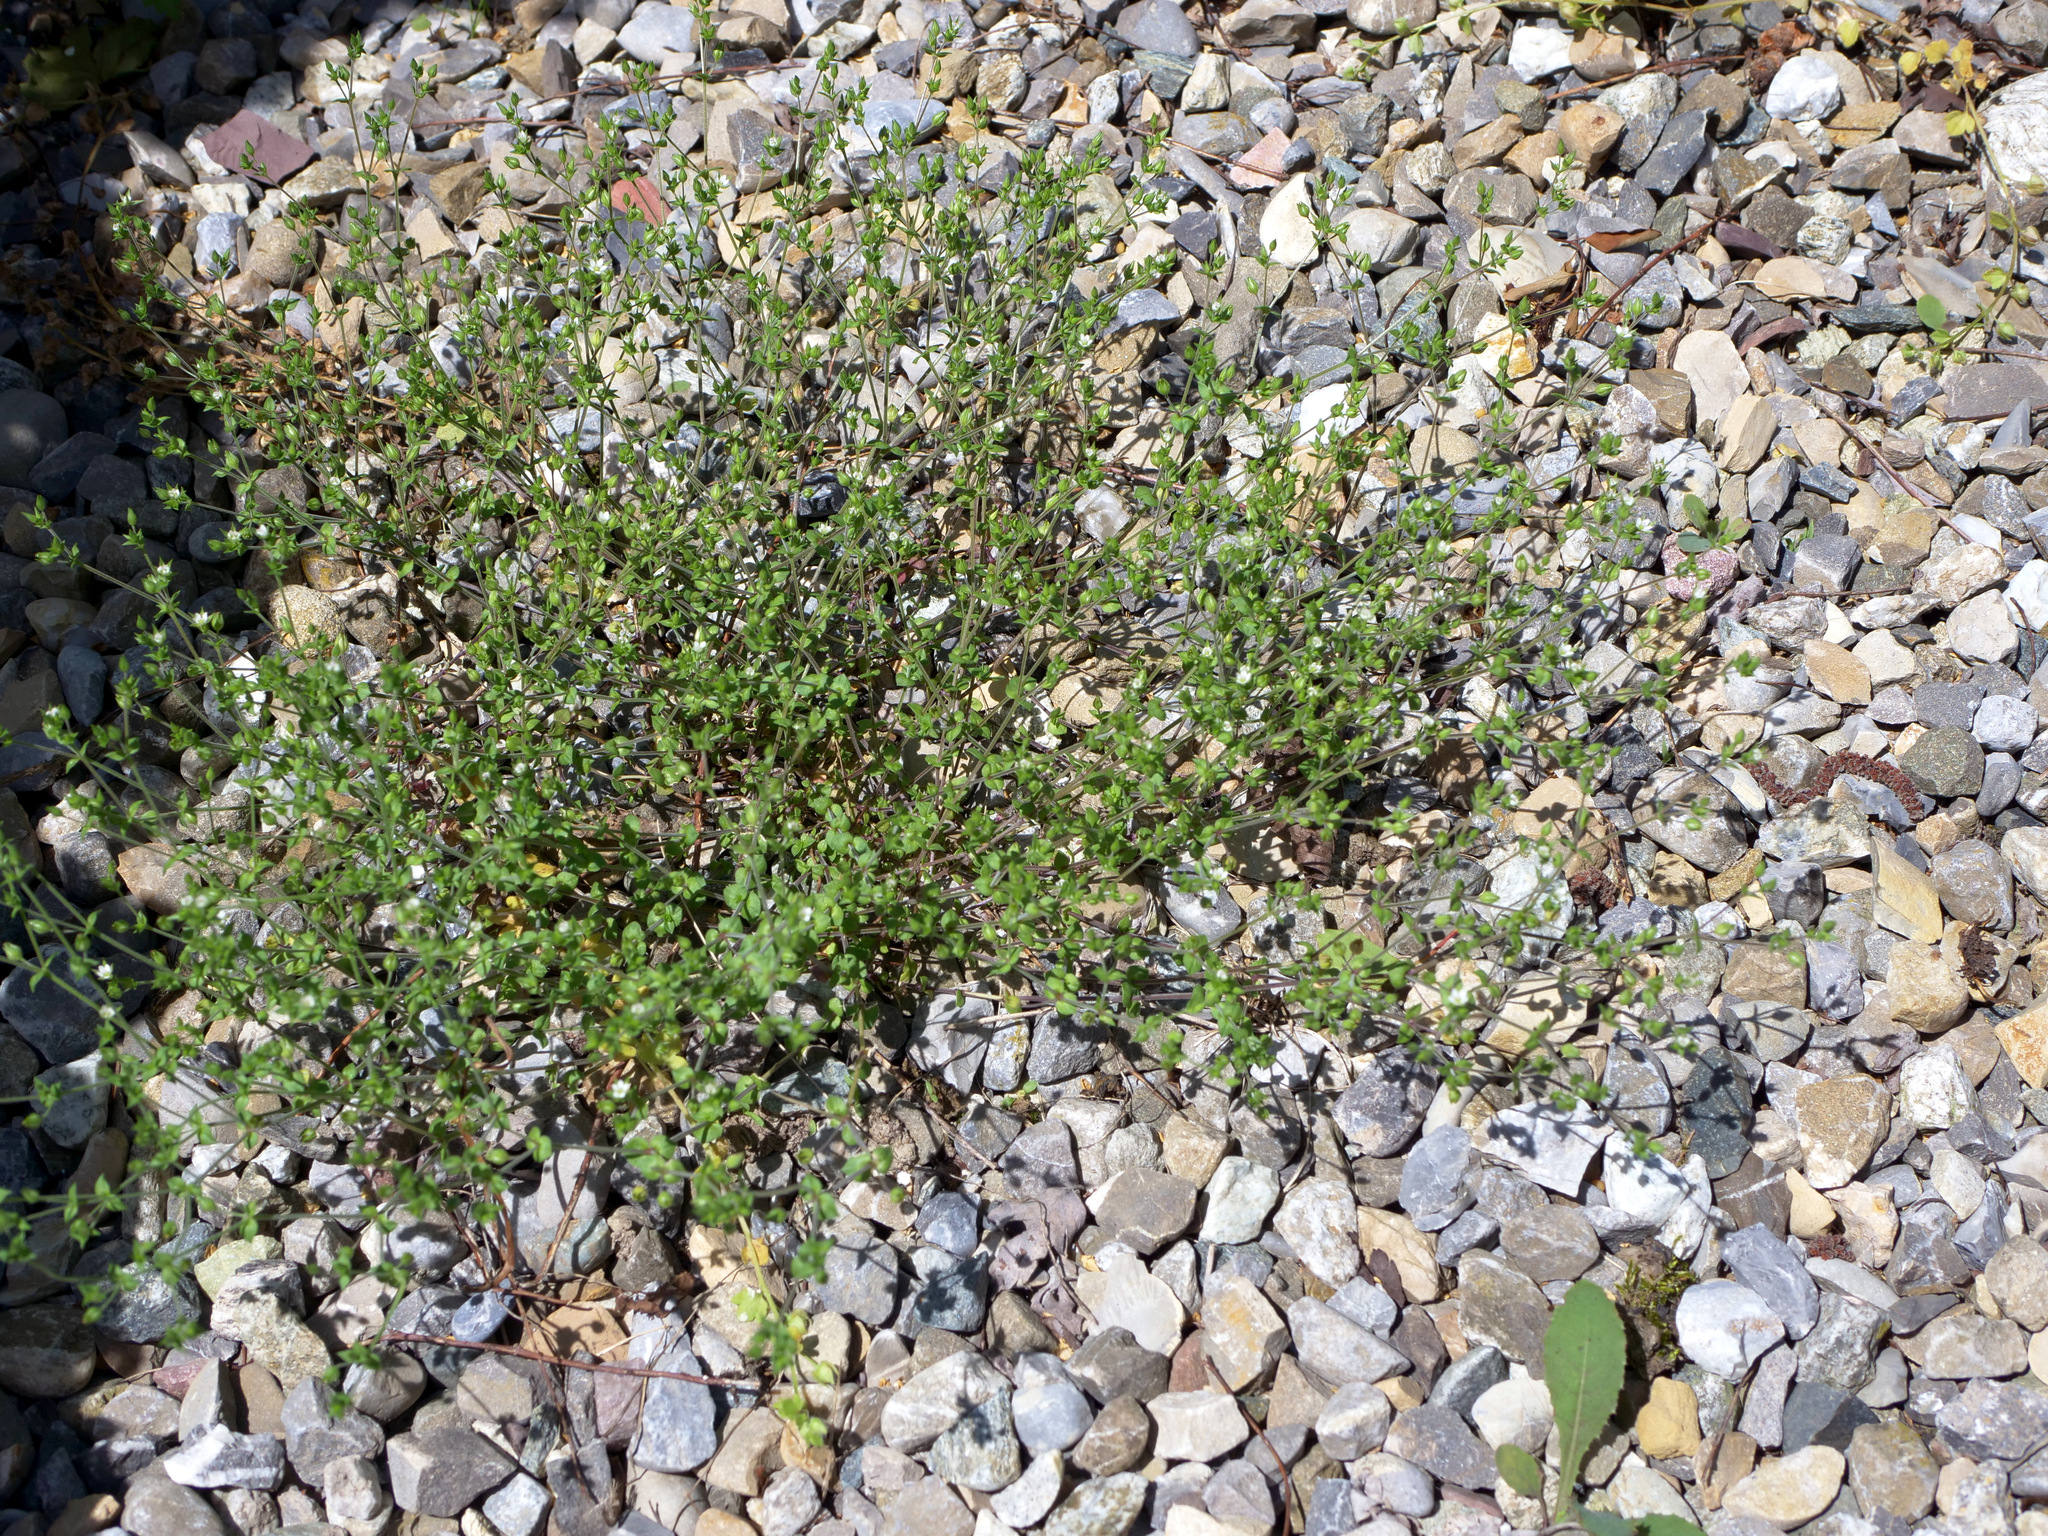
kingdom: Plantae
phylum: Tracheophyta
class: Magnoliopsida
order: Caryophyllales
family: Caryophyllaceae
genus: Arenaria
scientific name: Arenaria serpyllifolia
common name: Thyme-leaved sandwort
